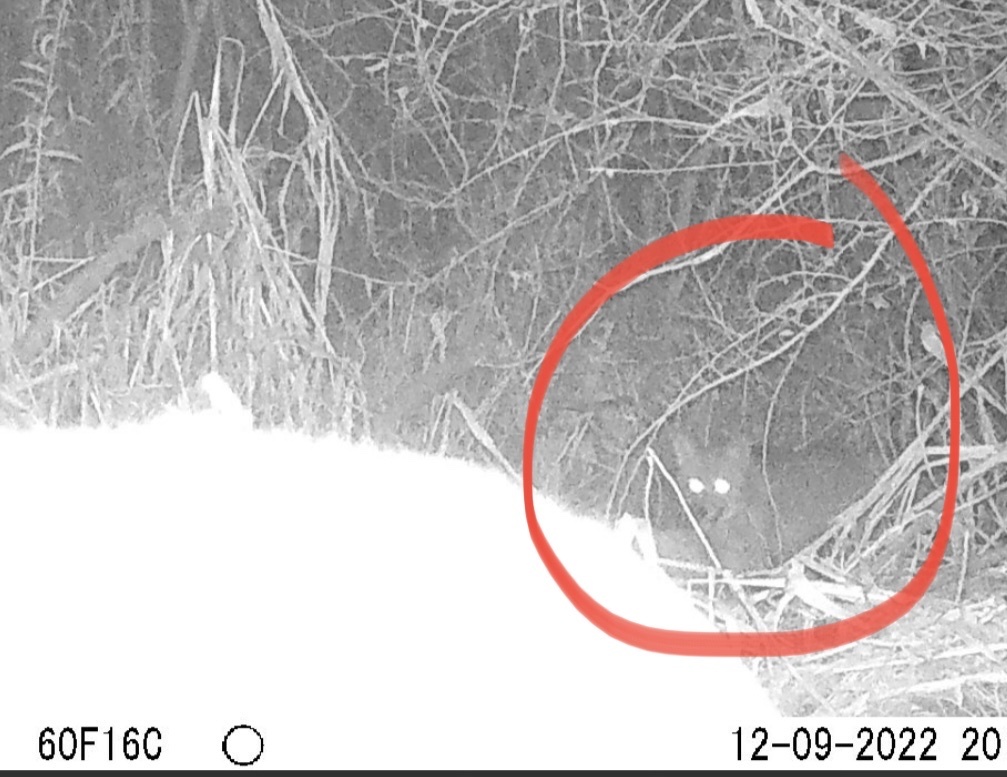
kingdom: Animalia
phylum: Chordata
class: Mammalia
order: Carnivora
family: Canidae
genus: Canis
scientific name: Canis latrans
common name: Coyote
